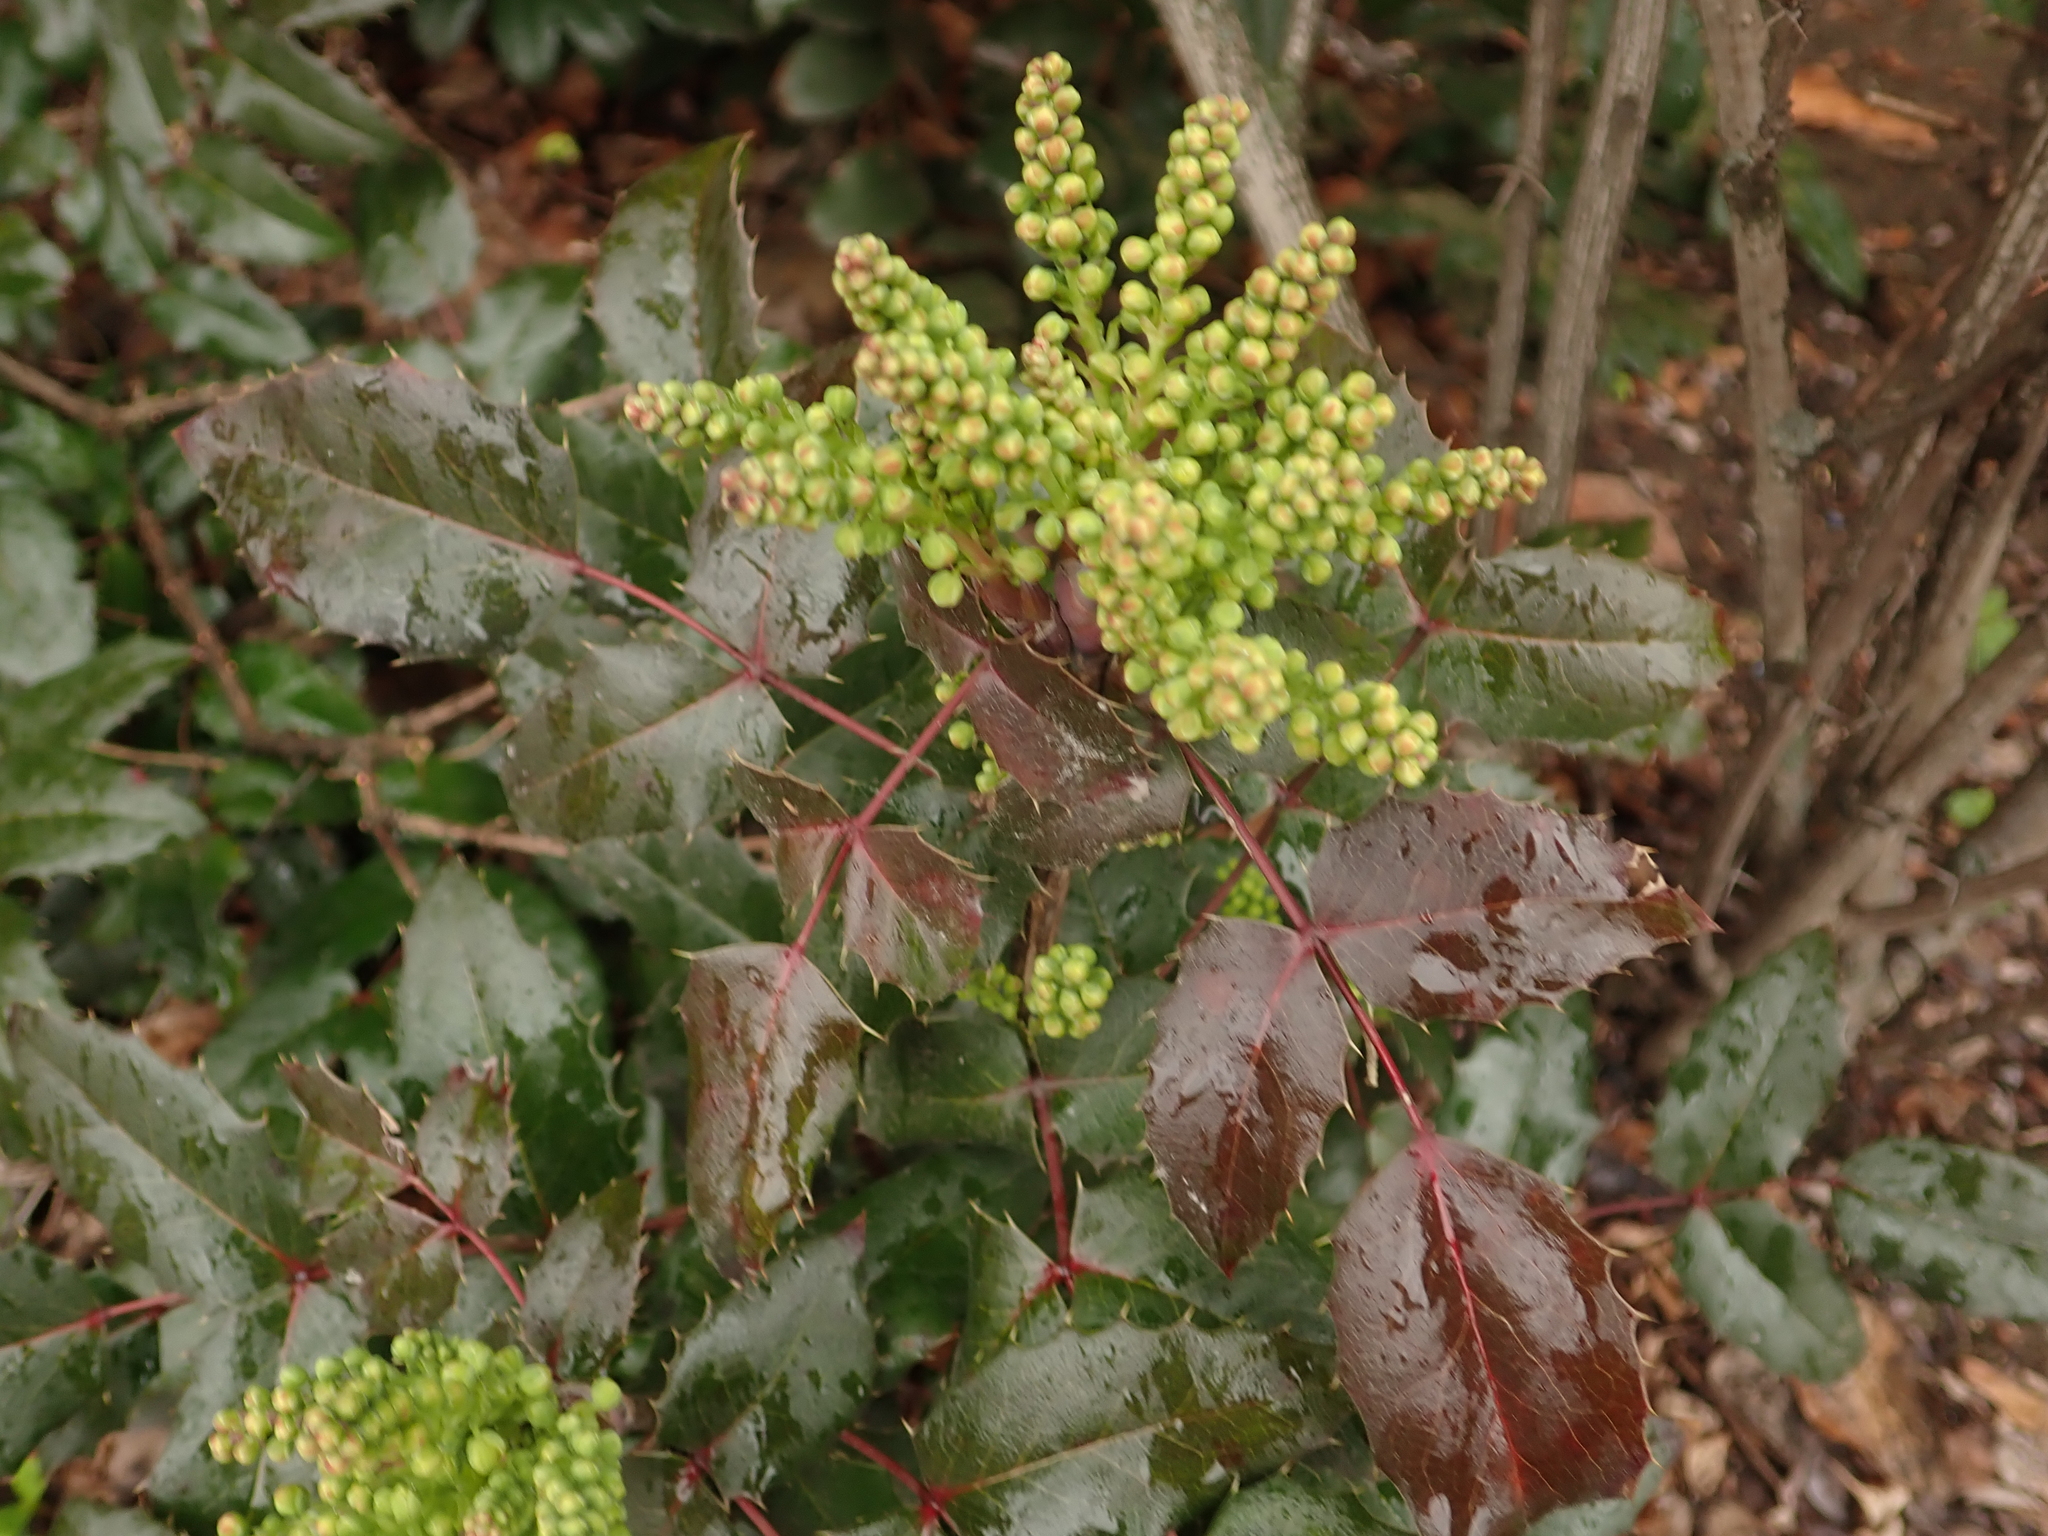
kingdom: Plantae
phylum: Tracheophyta
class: Magnoliopsida
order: Ranunculales
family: Berberidaceae
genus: Mahonia
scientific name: Mahonia aquifolium
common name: Oregon-grape
